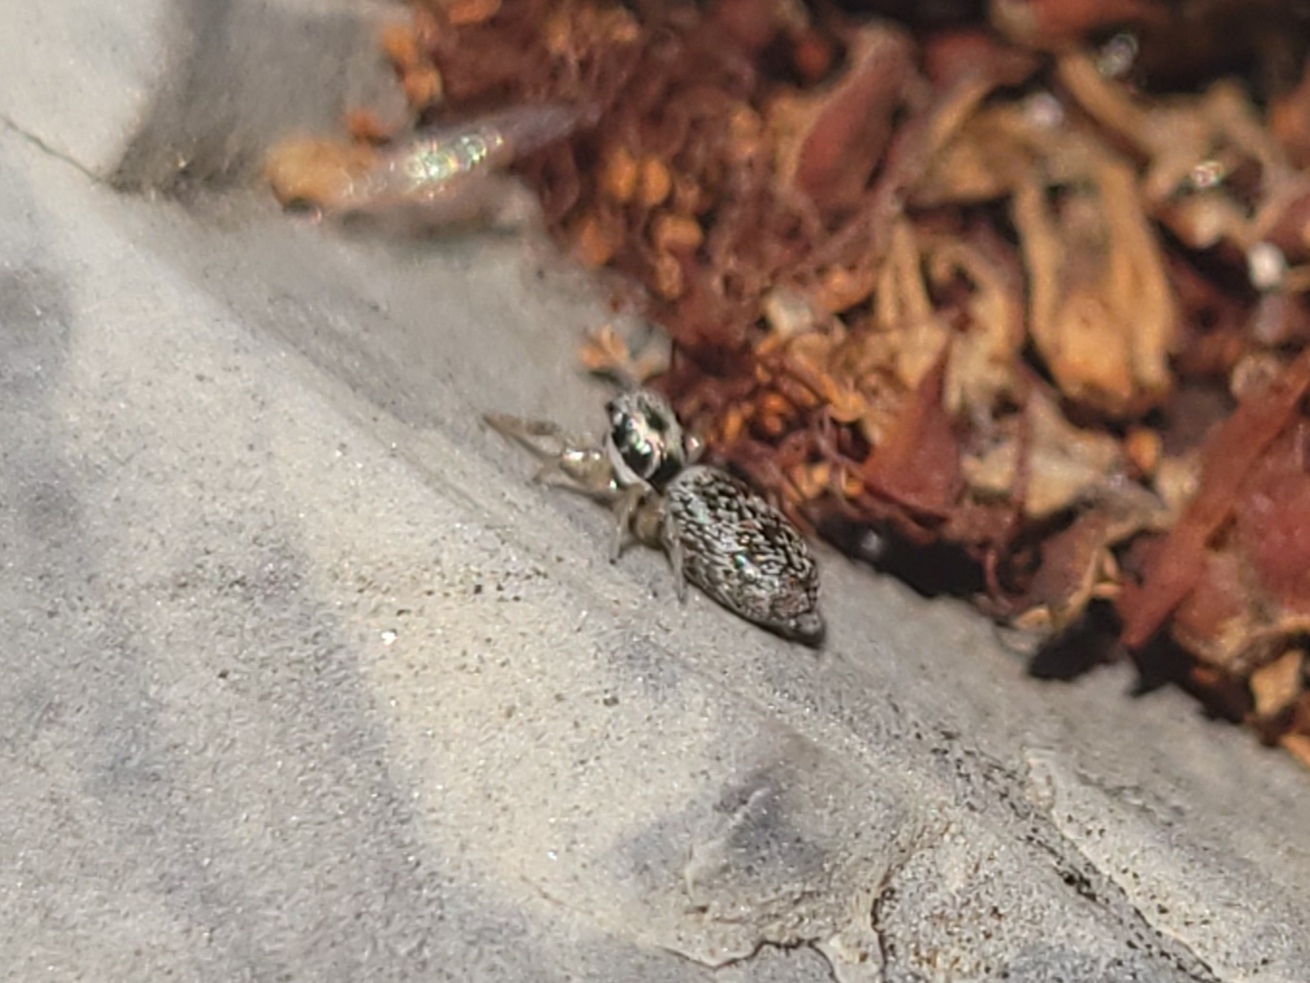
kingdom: Animalia
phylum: Arthropoda
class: Arachnida
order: Araneae
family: Salticidae
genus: Salticus
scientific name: Salticus scenicus
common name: Zebra jumper
